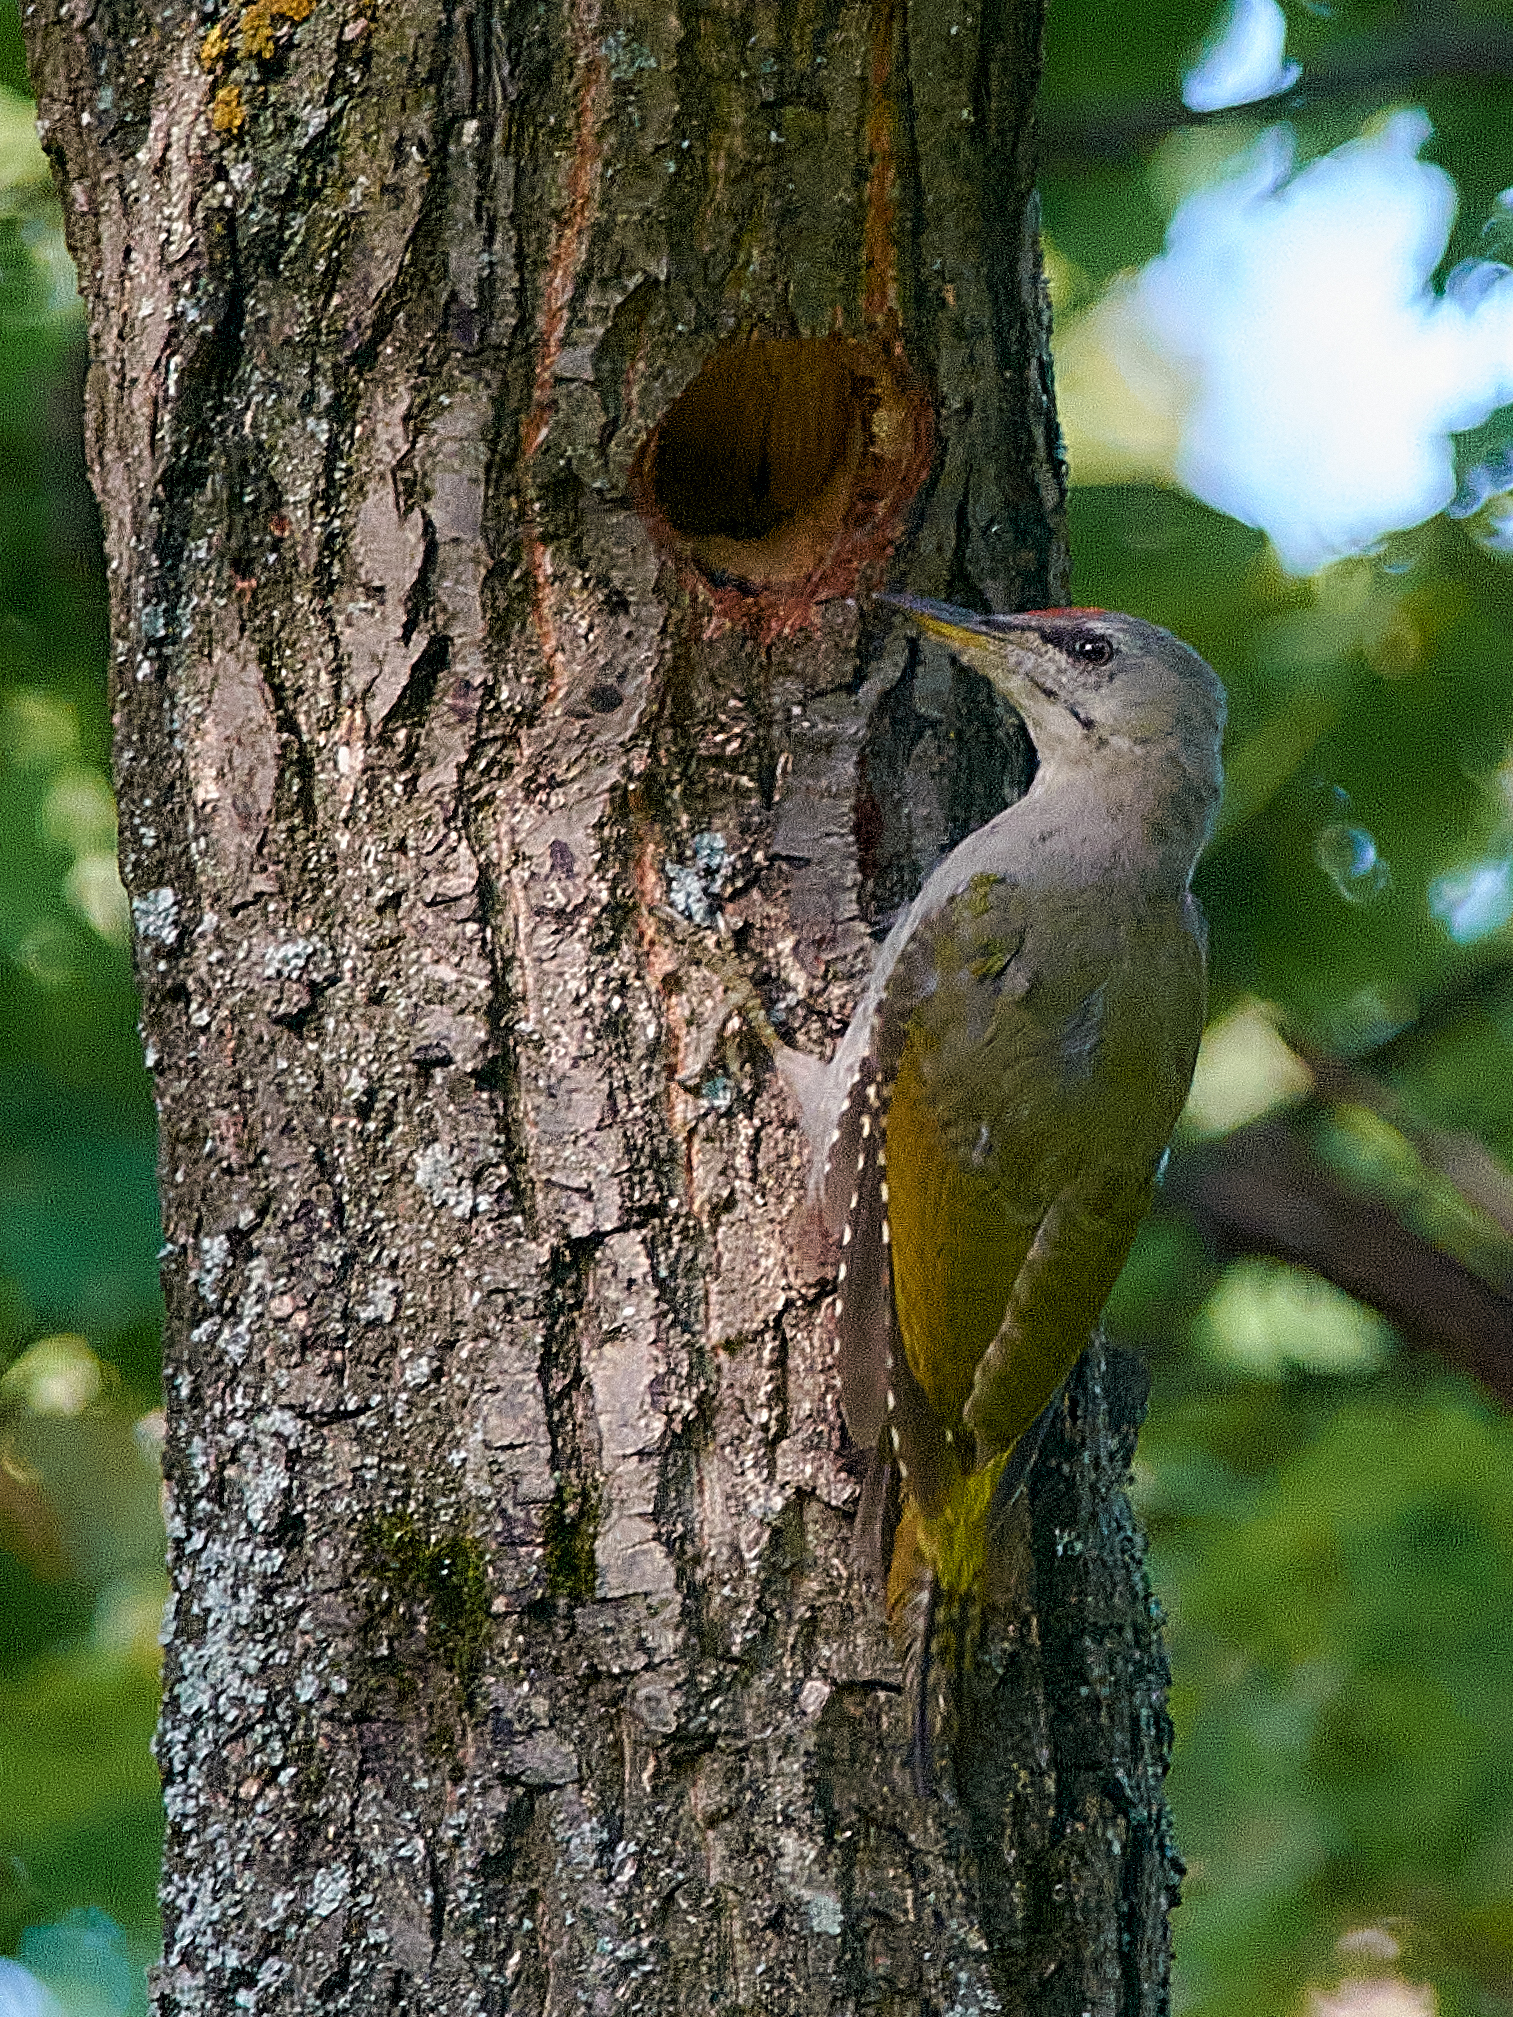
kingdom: Animalia
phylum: Chordata
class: Aves
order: Piciformes
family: Picidae
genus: Picus
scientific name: Picus canus
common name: Grey-headed woodpecker
